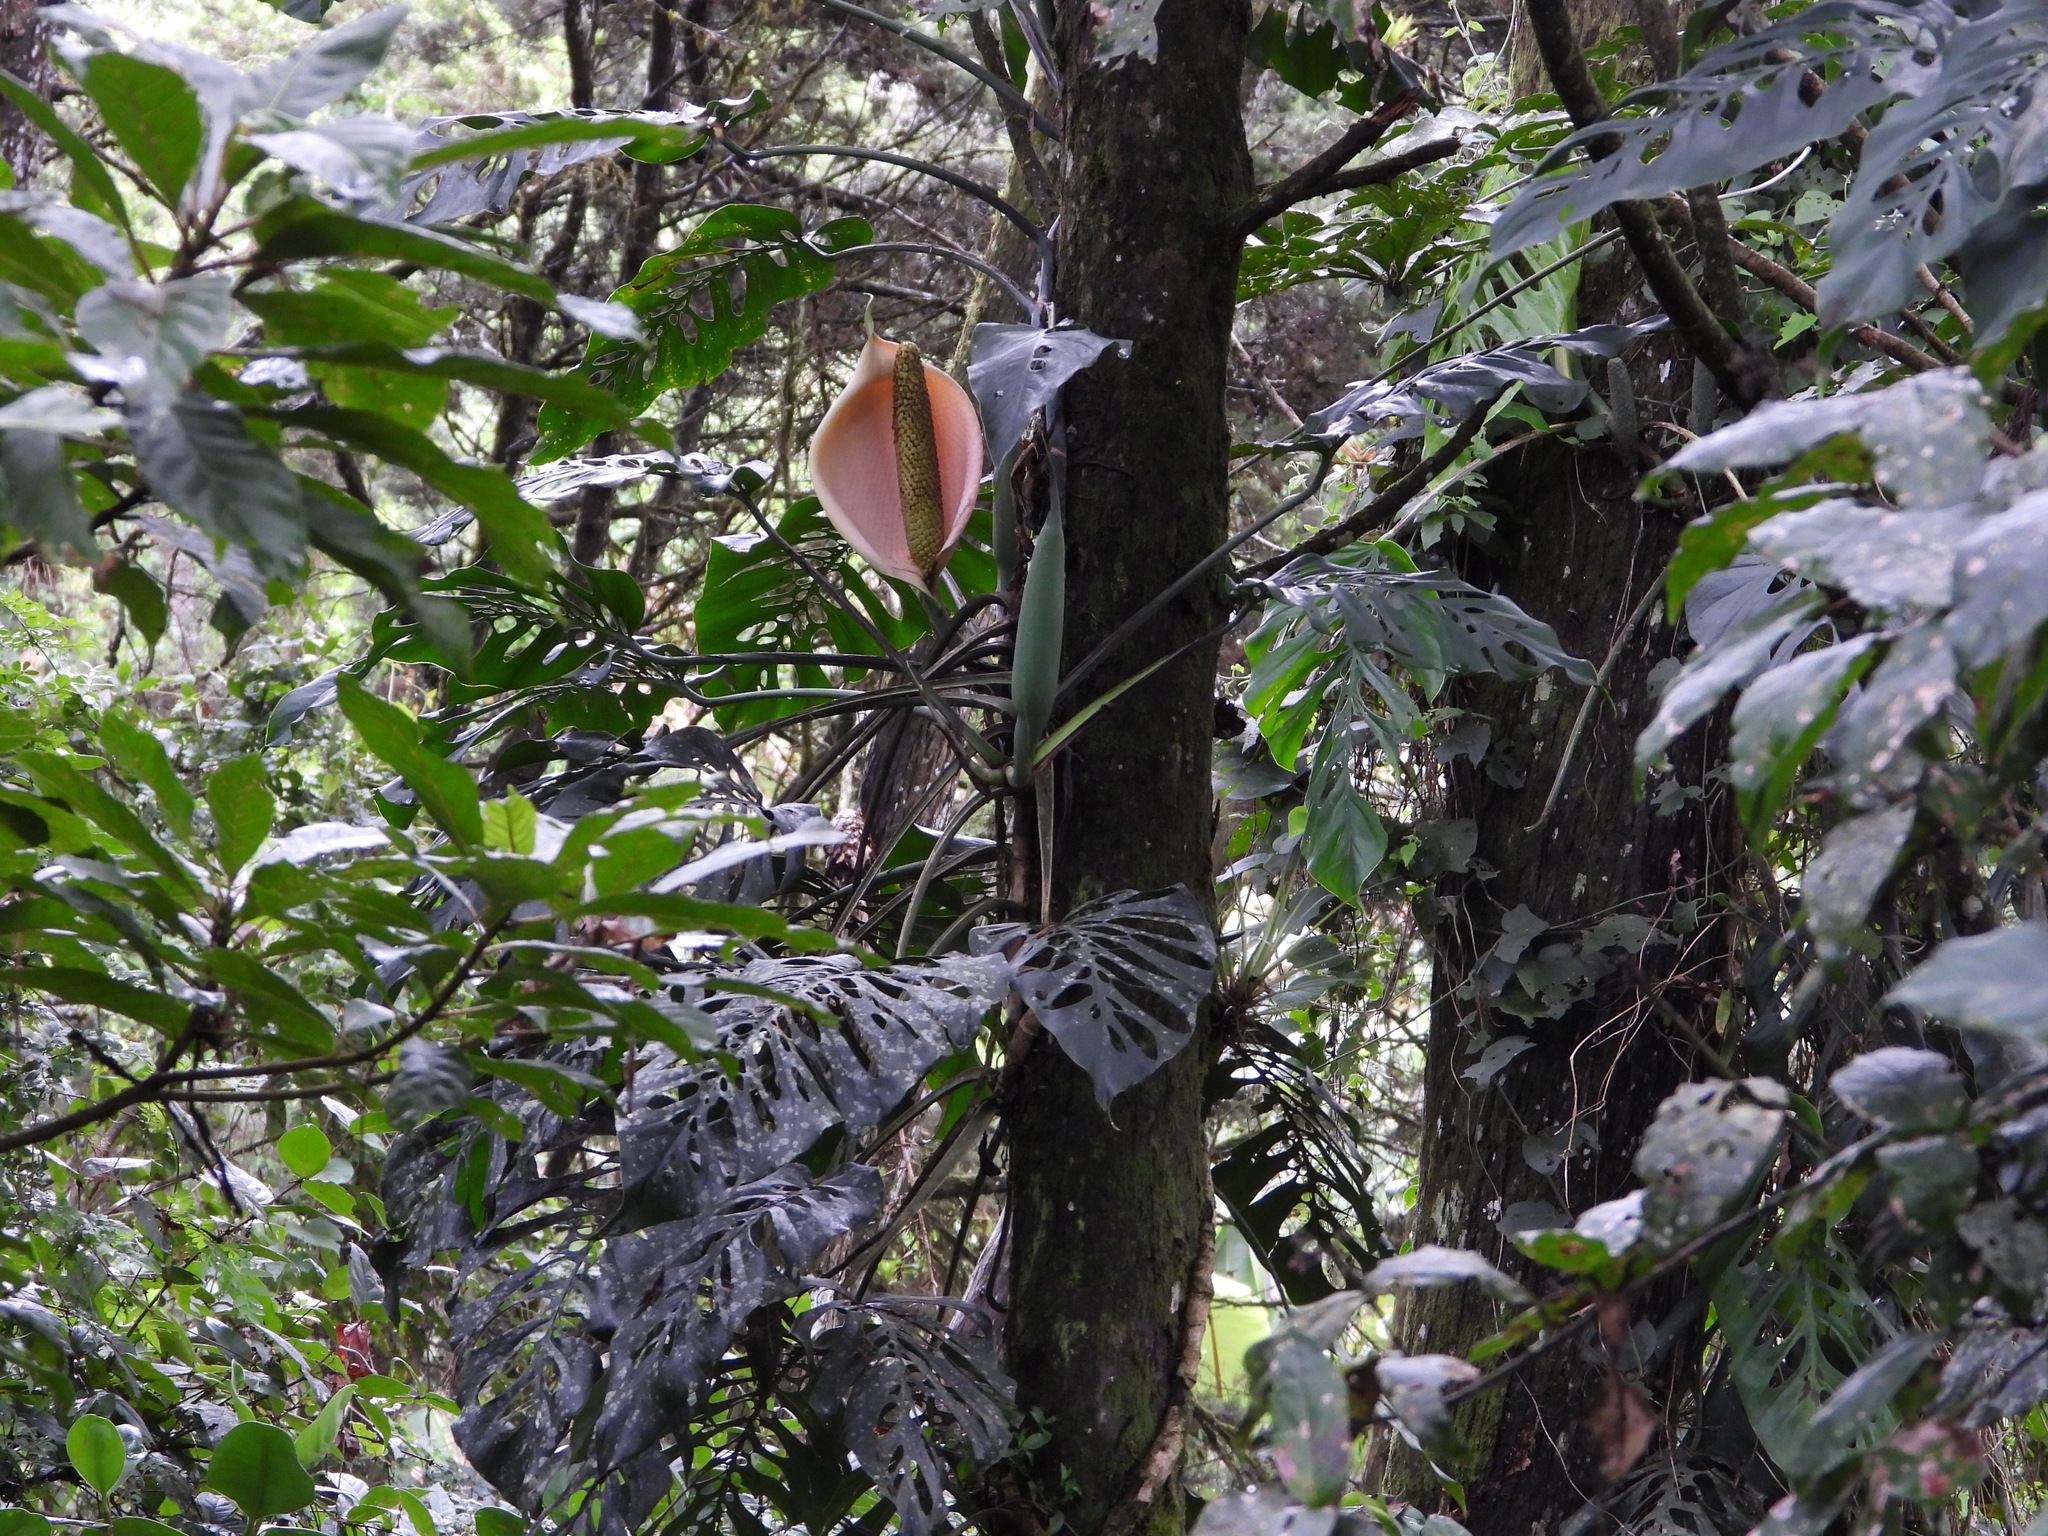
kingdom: Plantae
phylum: Tracheophyta
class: Liliopsida
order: Alismatales
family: Araceae
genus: Monstera
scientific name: Monstera siltepecana
